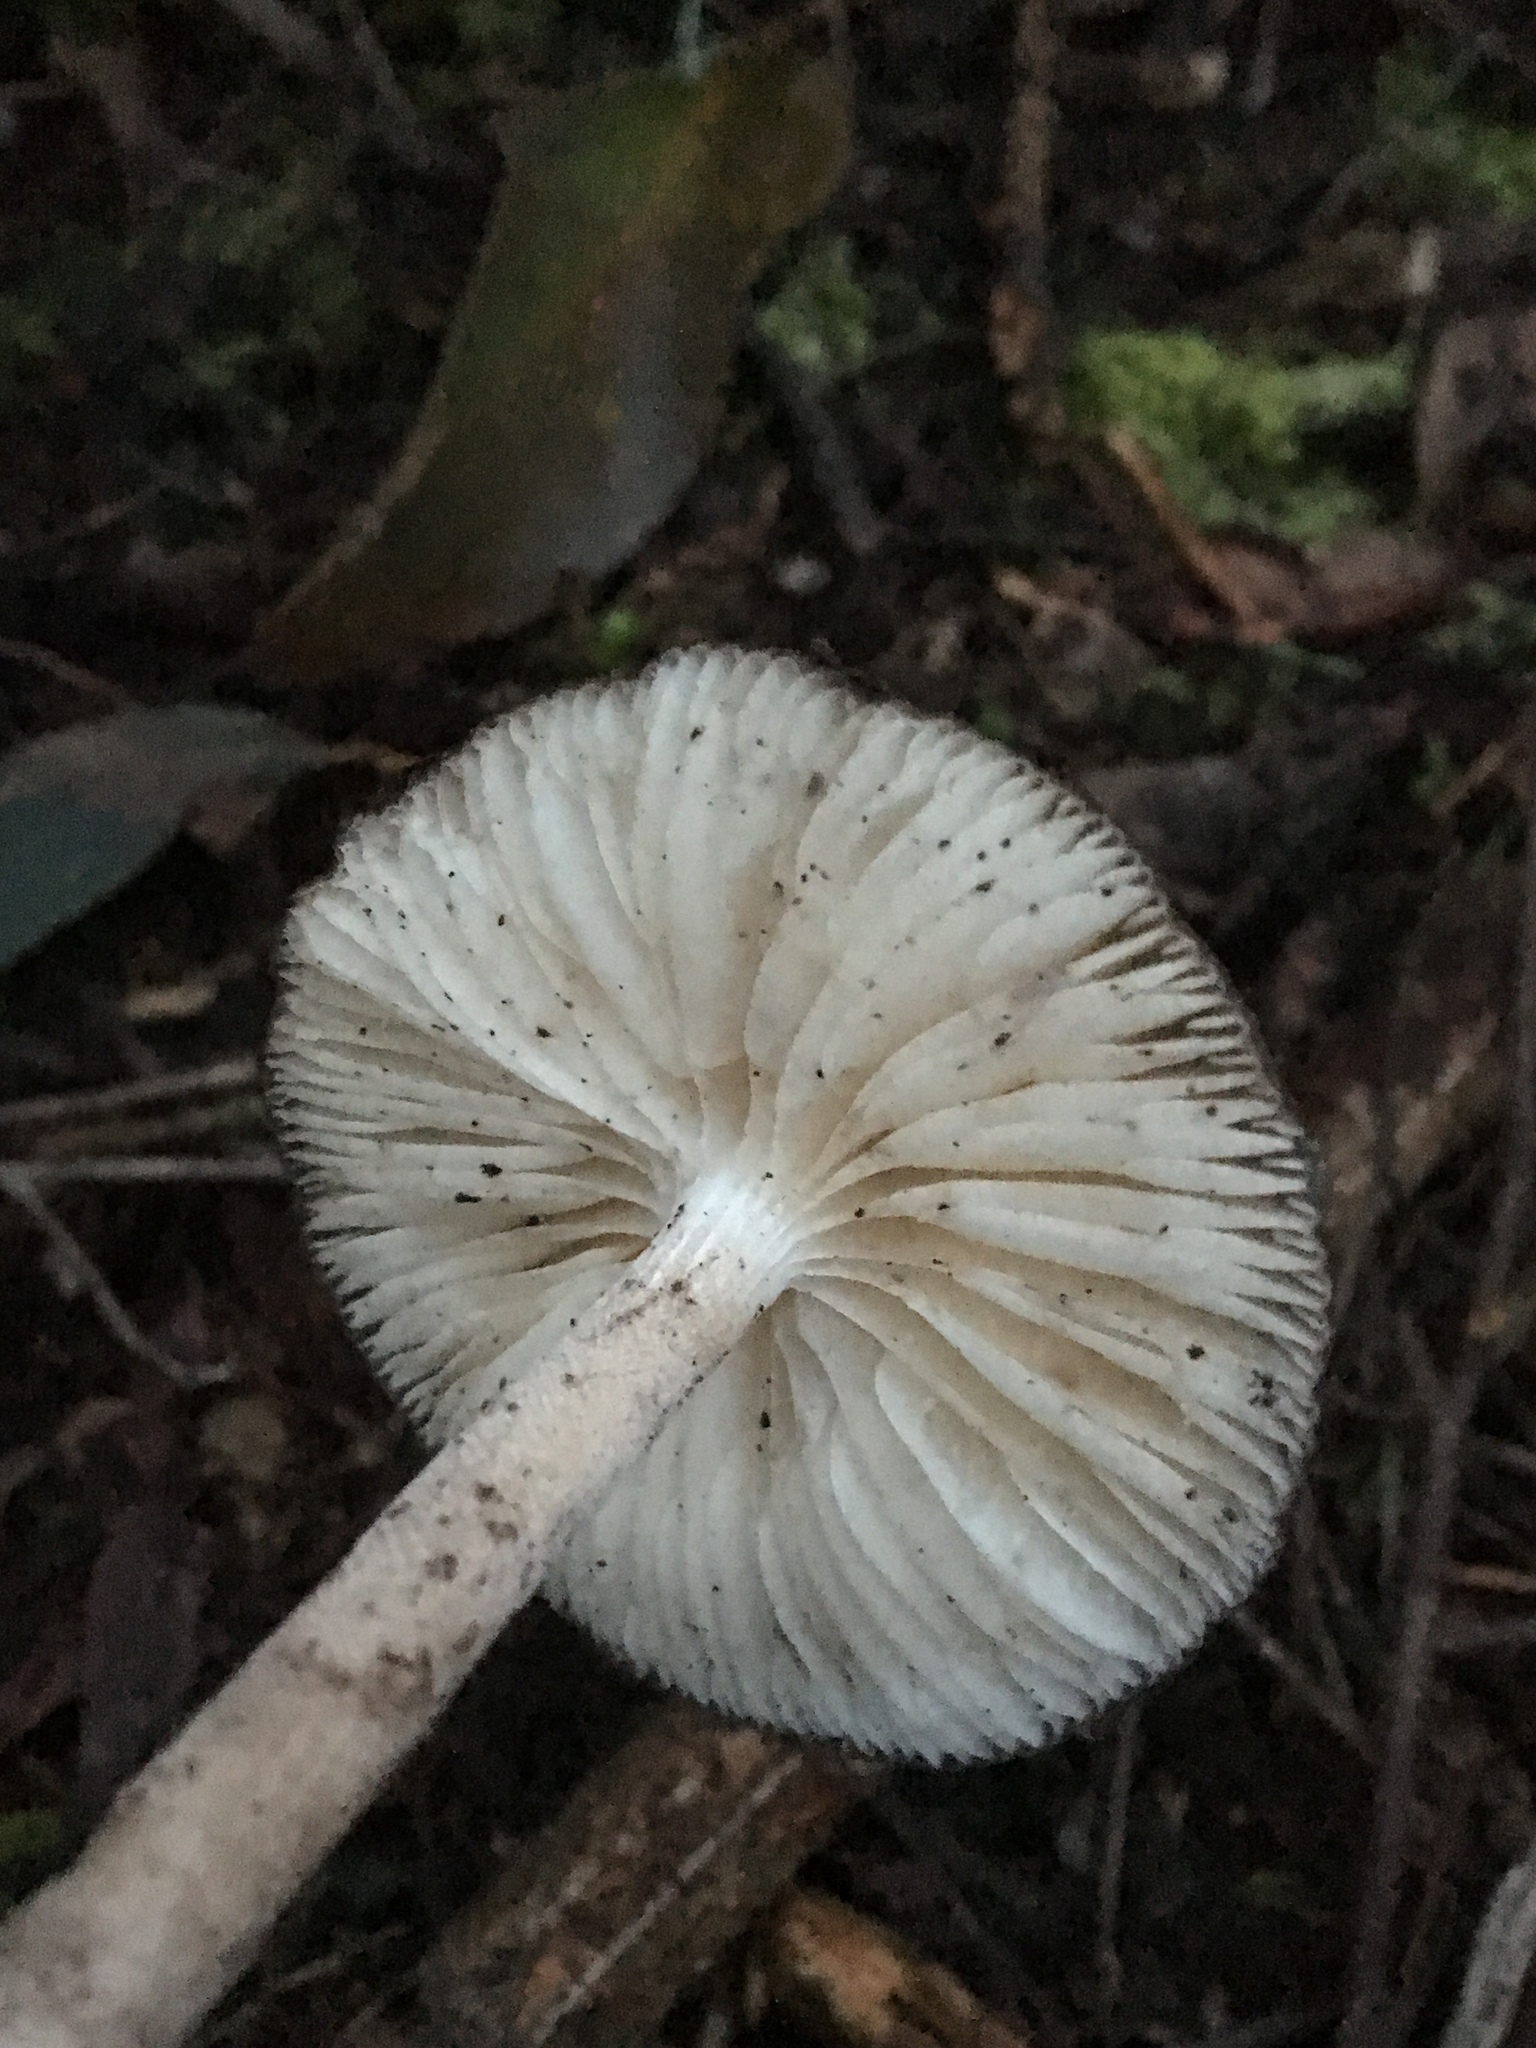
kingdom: Fungi
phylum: Basidiomycota
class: Agaricomycetes
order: Agaricales
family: Physalacriaceae
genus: Hymenopellis
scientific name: Hymenopellis gigaspora
